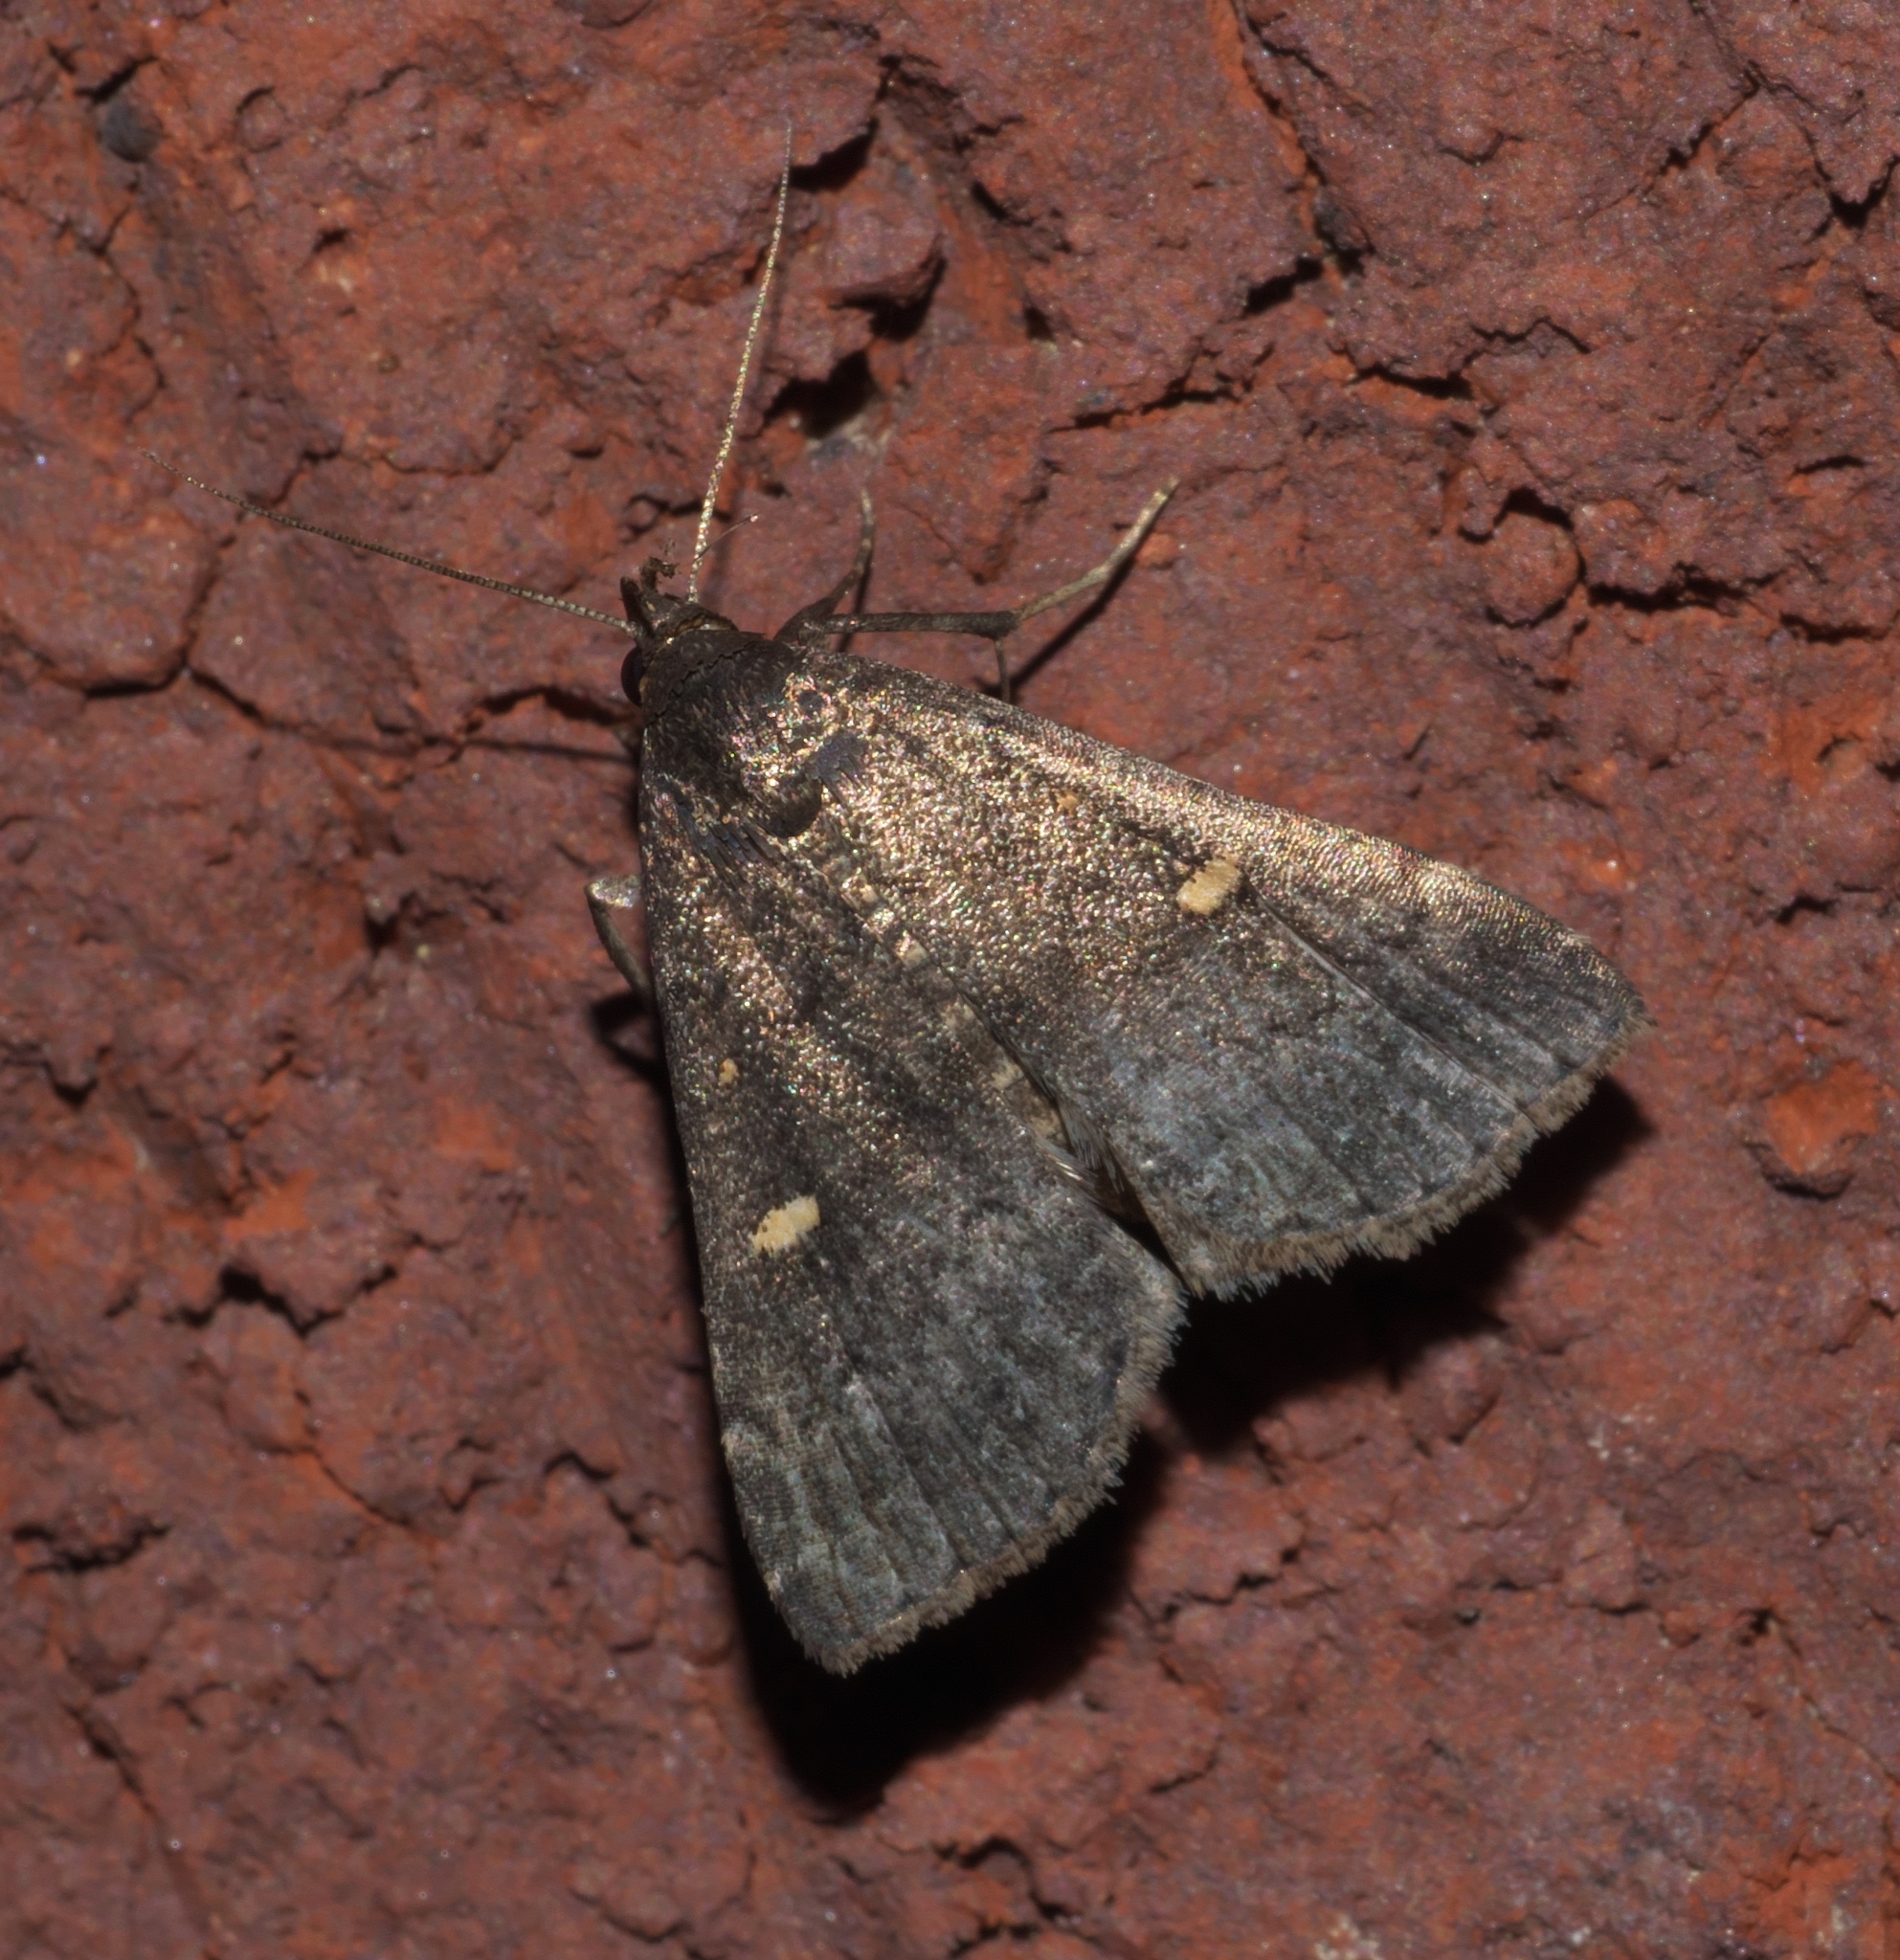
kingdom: Animalia
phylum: Arthropoda
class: Insecta
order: Lepidoptera
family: Erebidae
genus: Tetanolita
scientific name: Tetanolita mynesalis
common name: Smoky tetanolita moth
